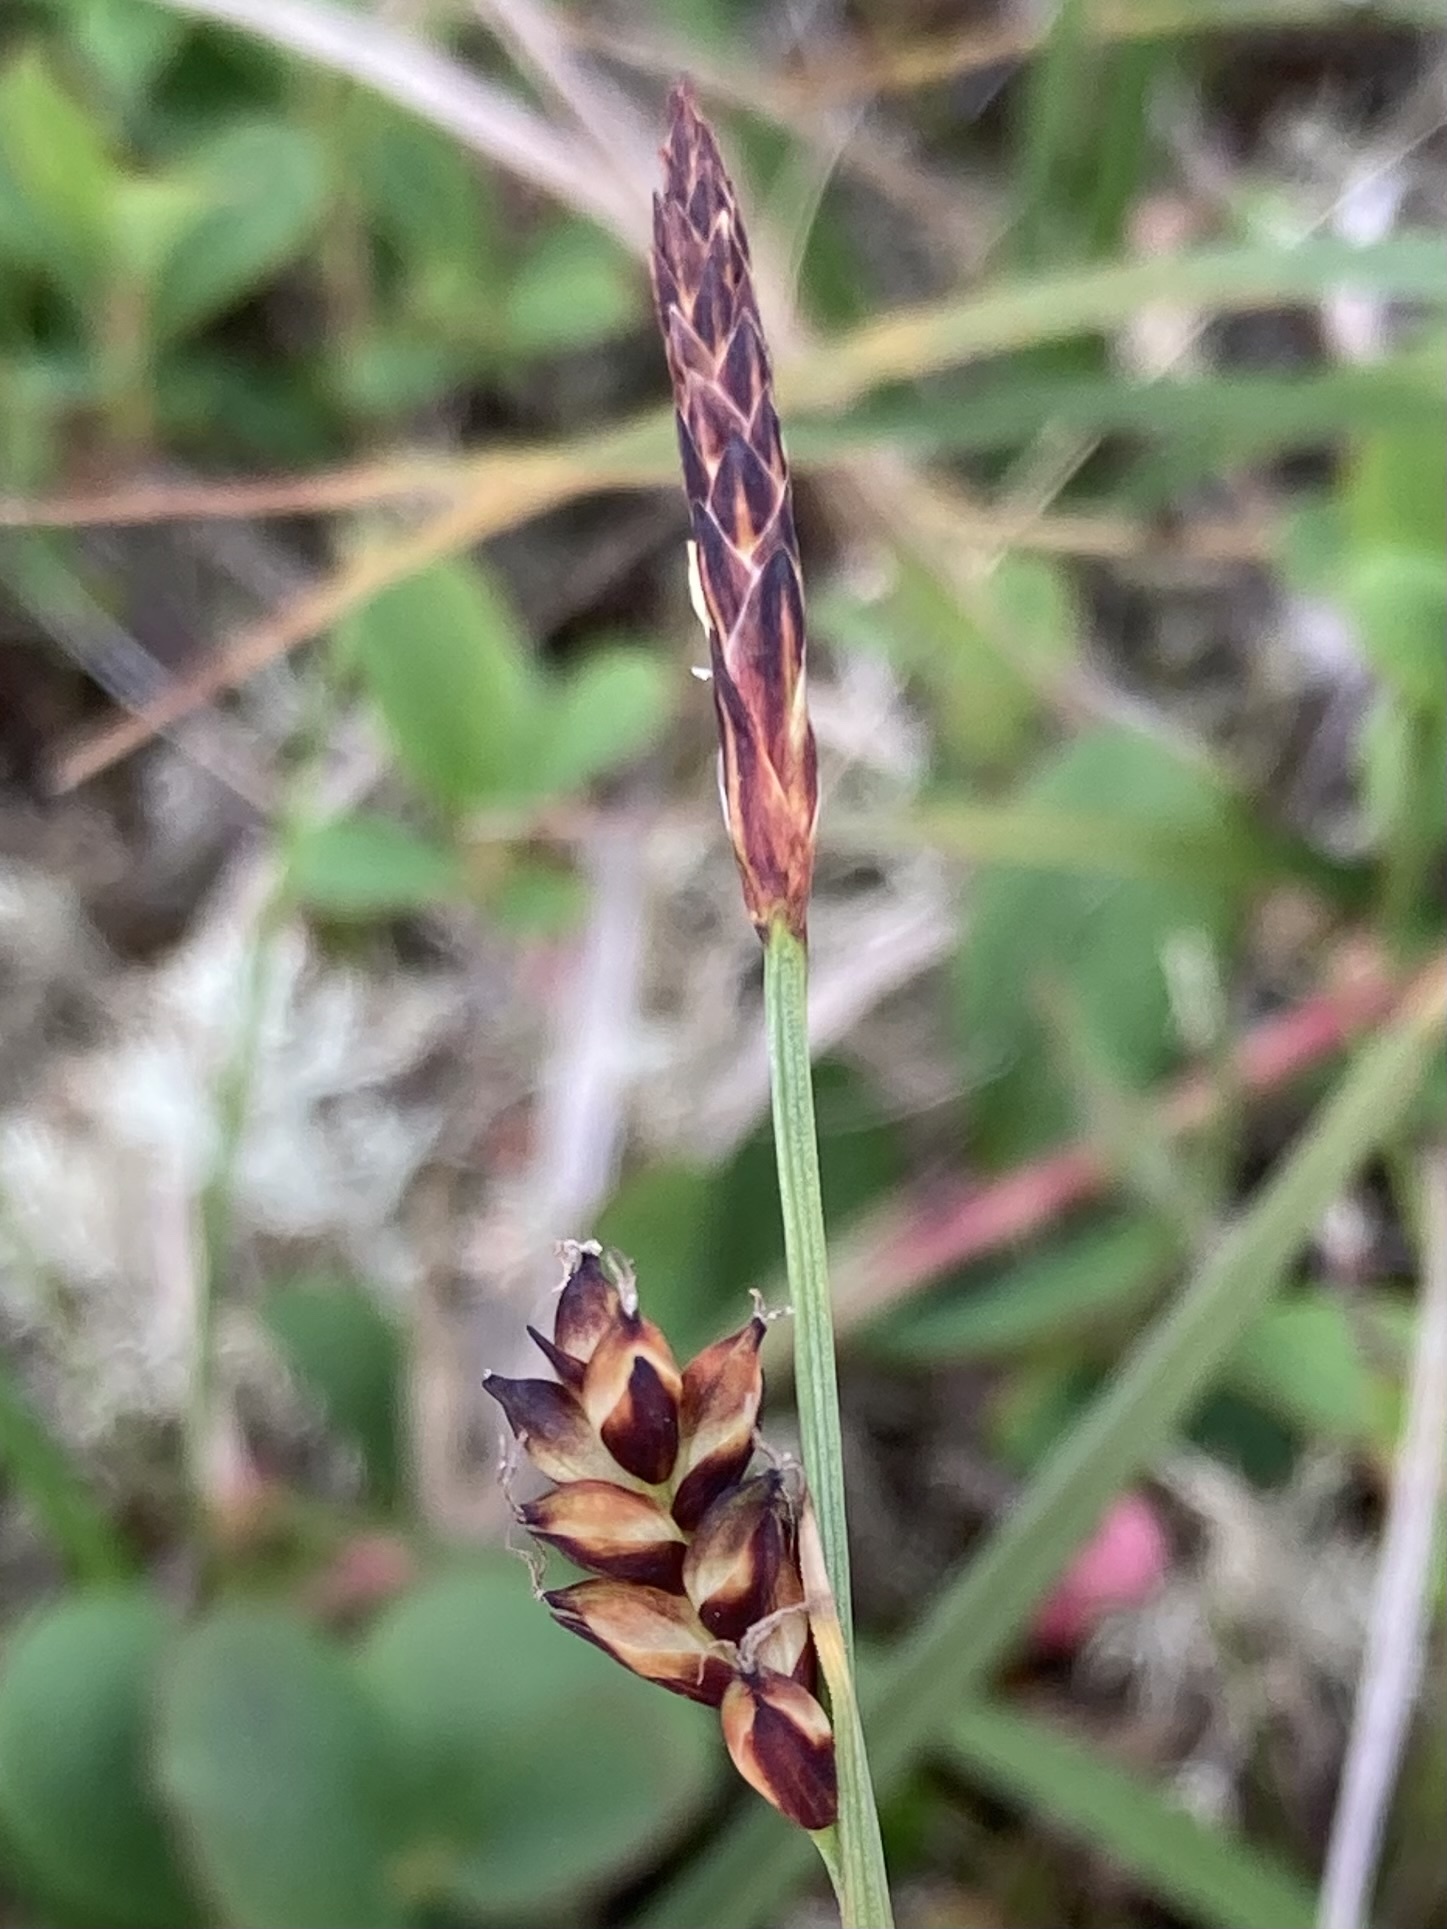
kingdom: Plantae
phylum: Tracheophyta
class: Liliopsida
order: Poales
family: Cyperaceae
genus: Carex
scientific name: Carex panicea
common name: Carnation sedge
